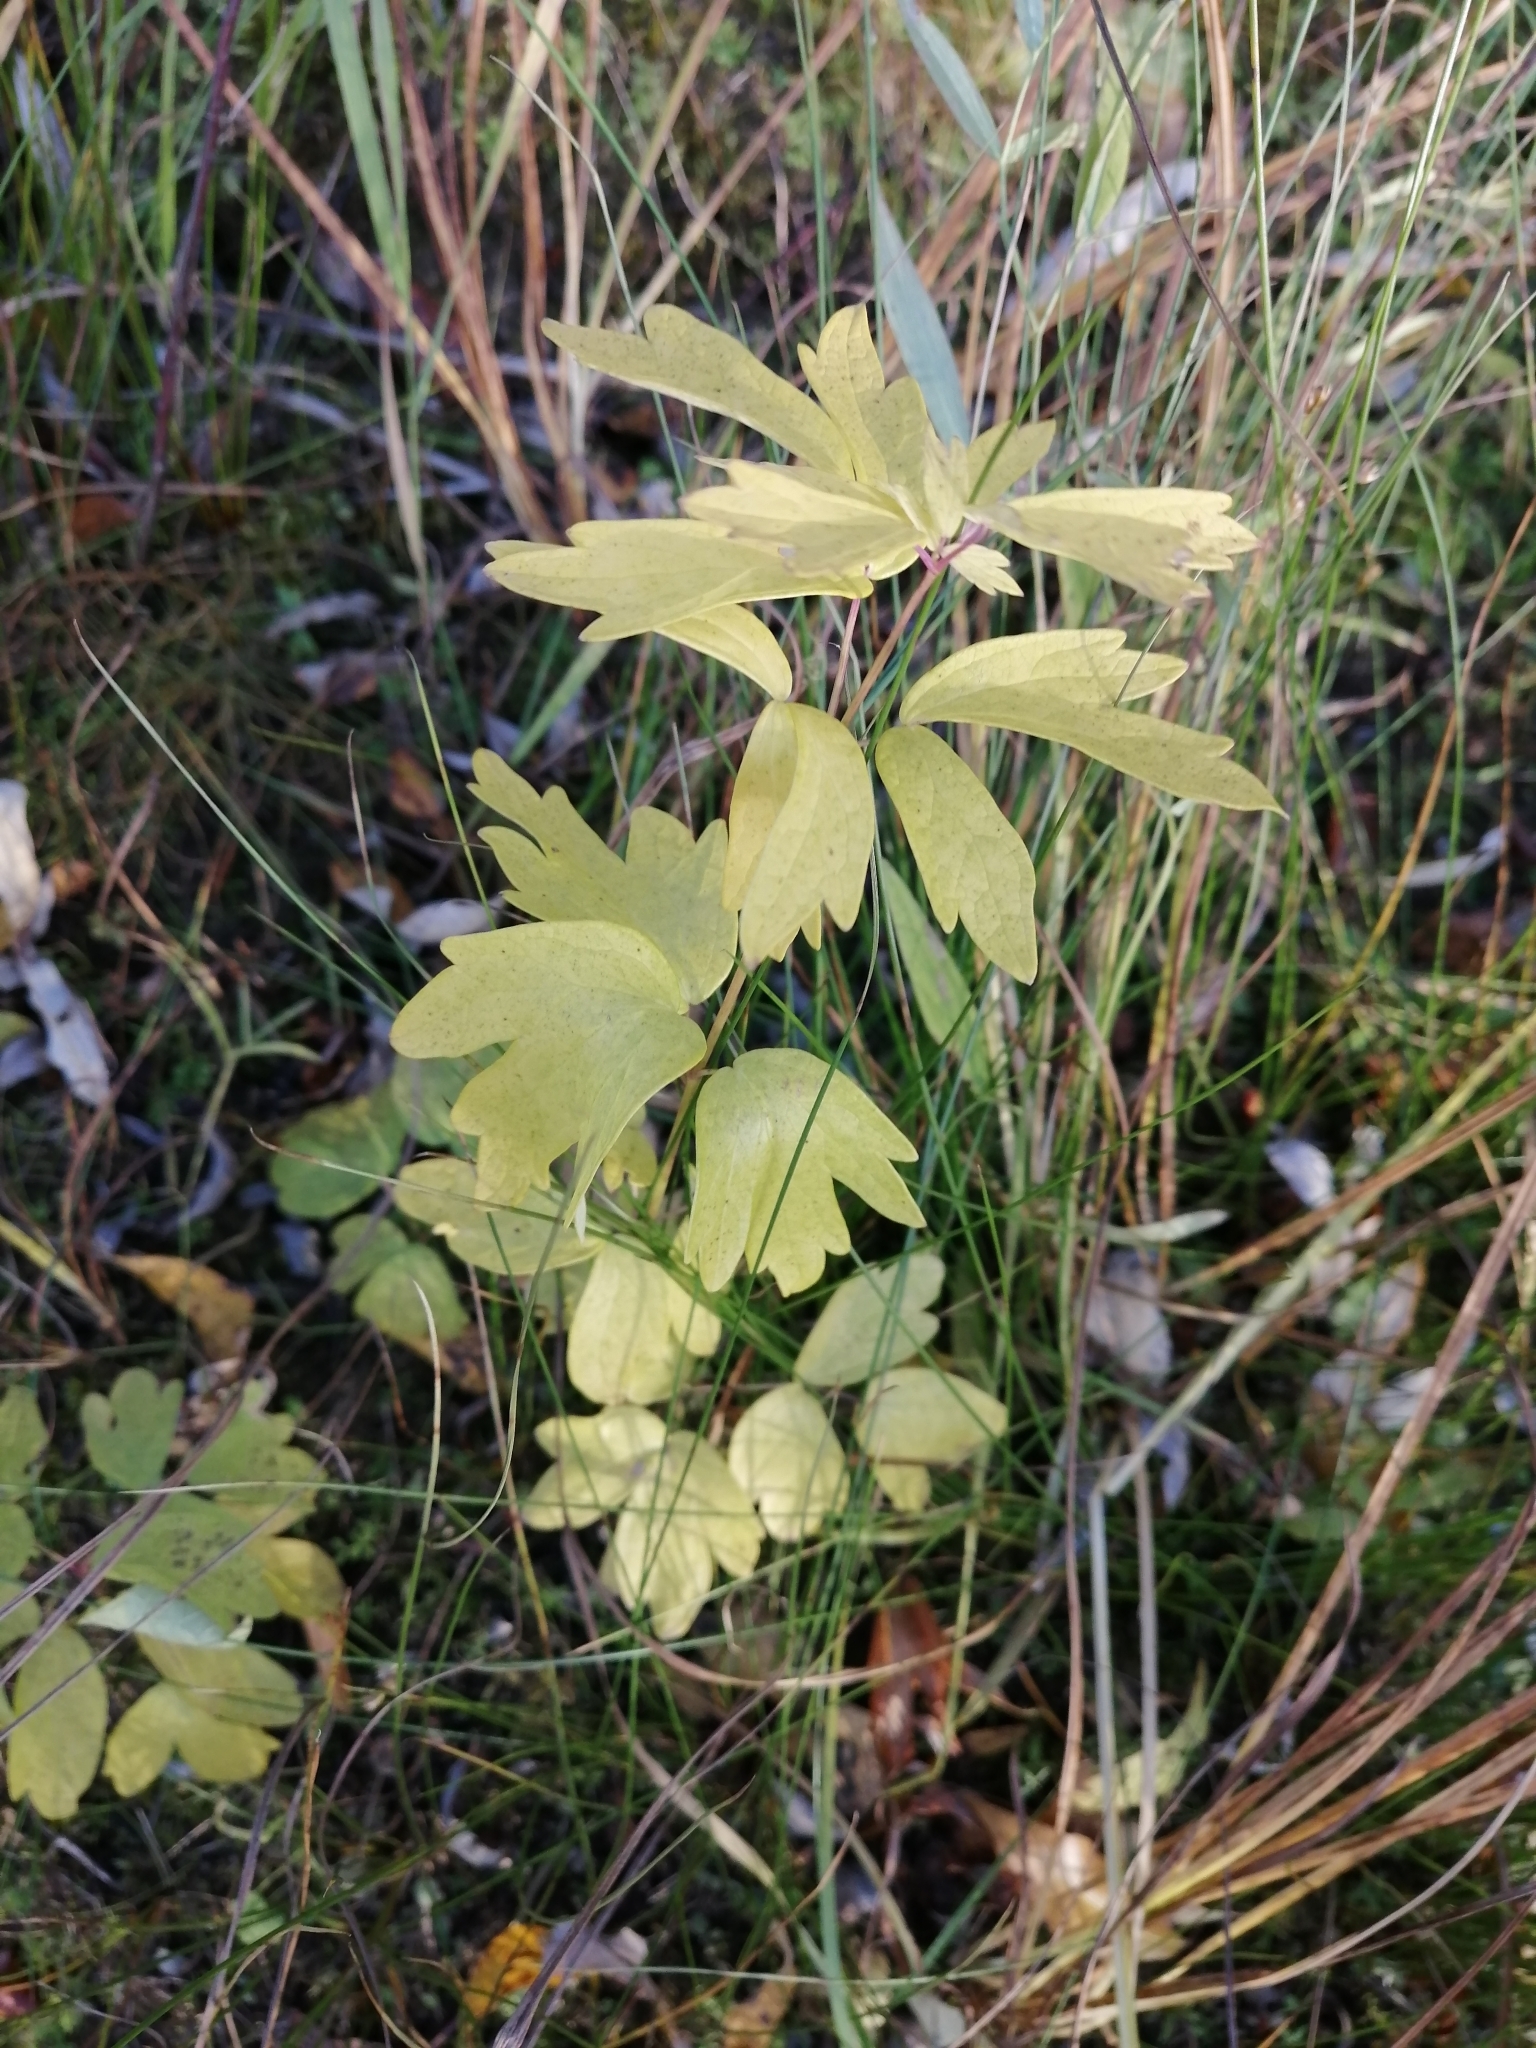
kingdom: Plantae
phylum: Tracheophyta
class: Magnoliopsida
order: Ranunculales
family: Ranunculaceae
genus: Thalictrum
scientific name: Thalictrum minus
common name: Lesser meadow-rue
